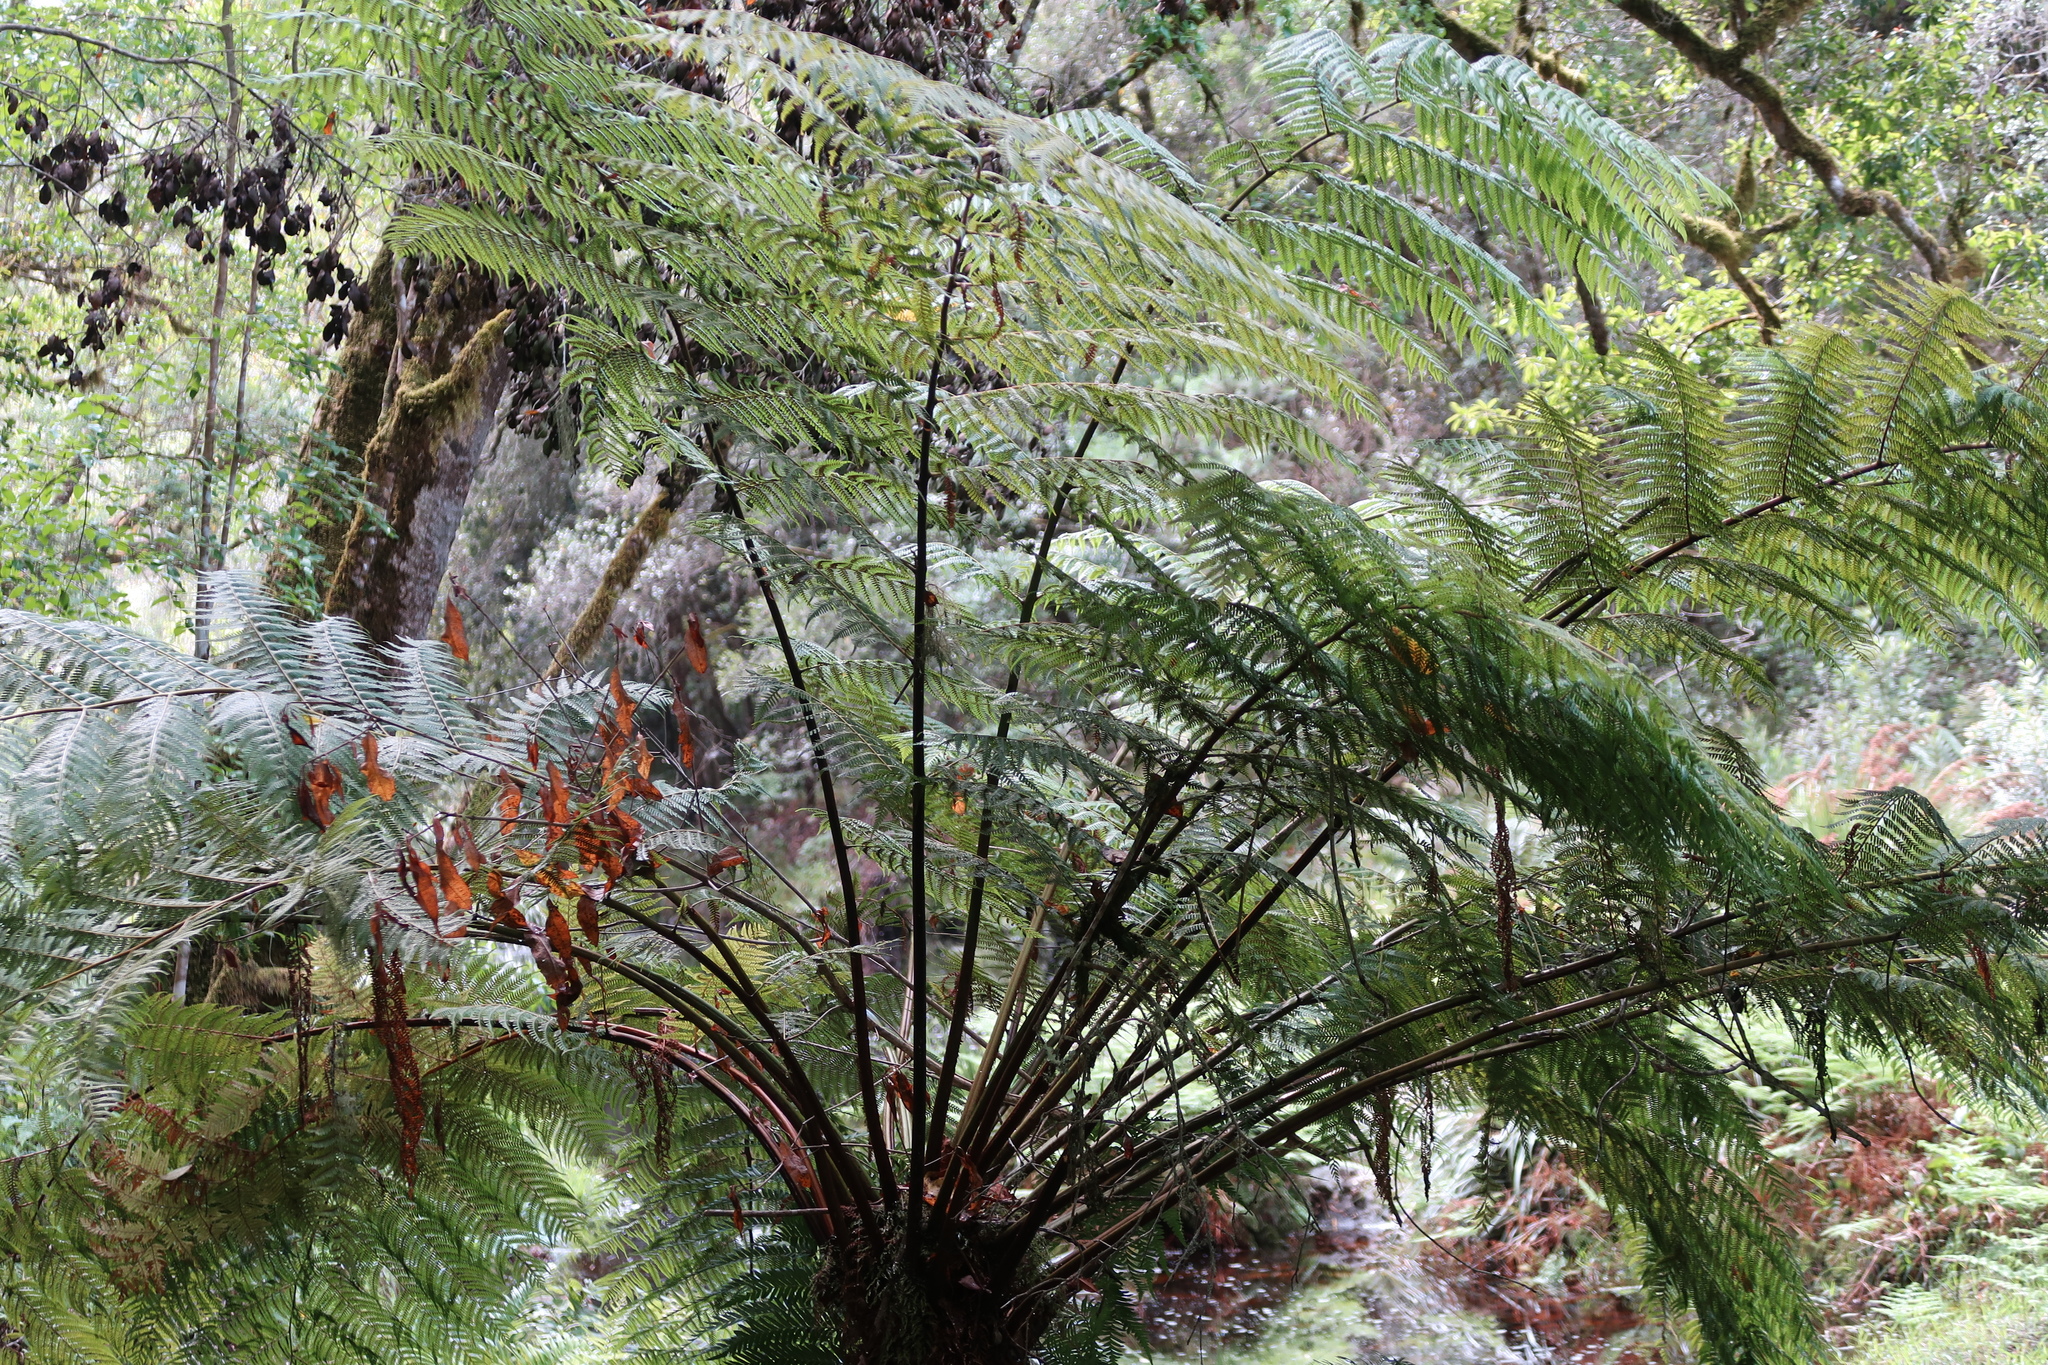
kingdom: Plantae
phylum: Tracheophyta
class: Polypodiopsida
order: Cyatheales
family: Cyatheaceae
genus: Gymnosphaera
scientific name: Gymnosphaera capensis
